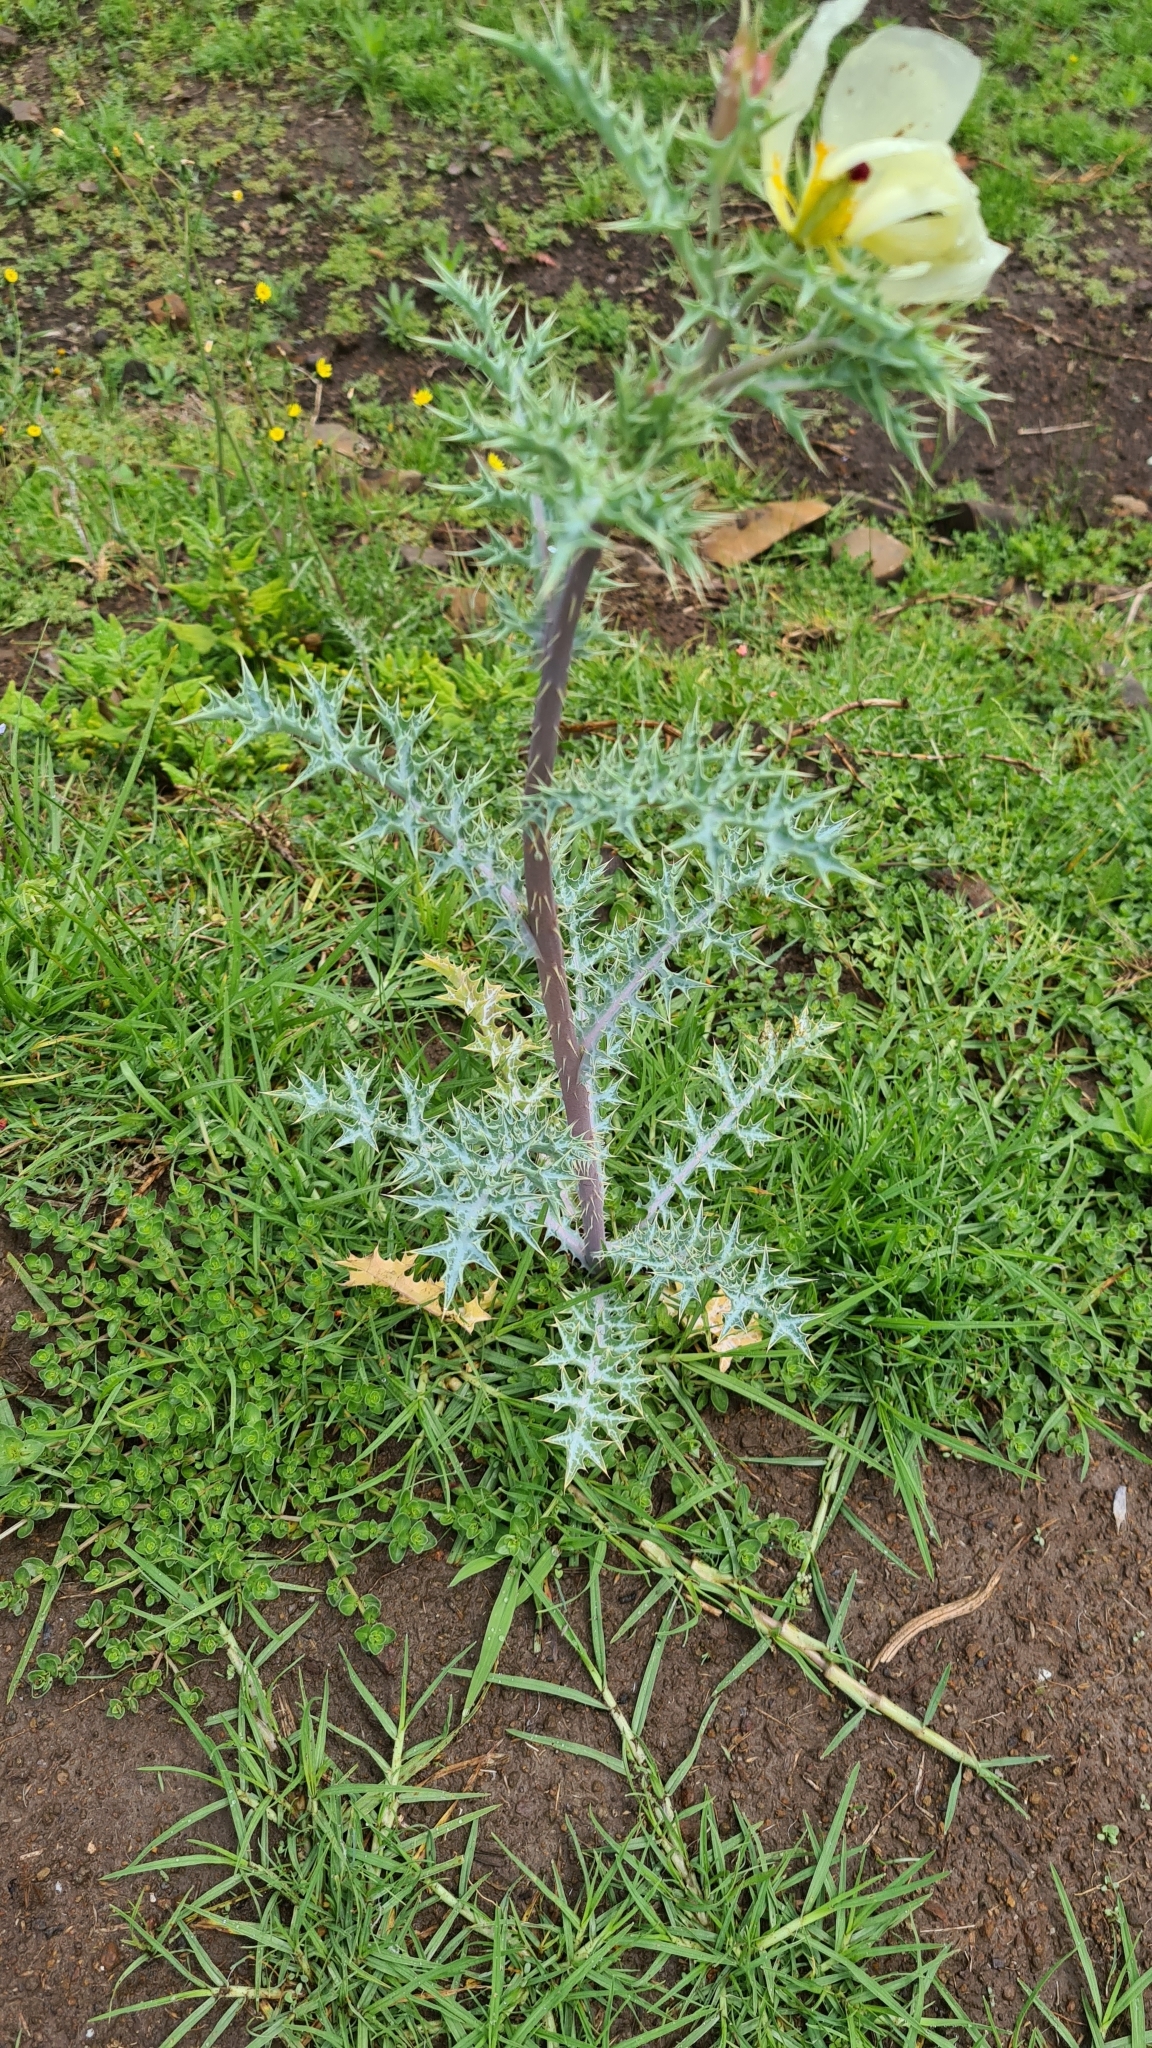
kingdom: Plantae
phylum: Tracheophyta
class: Magnoliopsida
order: Ranunculales
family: Papaveraceae
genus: Argemone
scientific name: Argemone ochroleuca
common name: White-flower mexican-poppy
